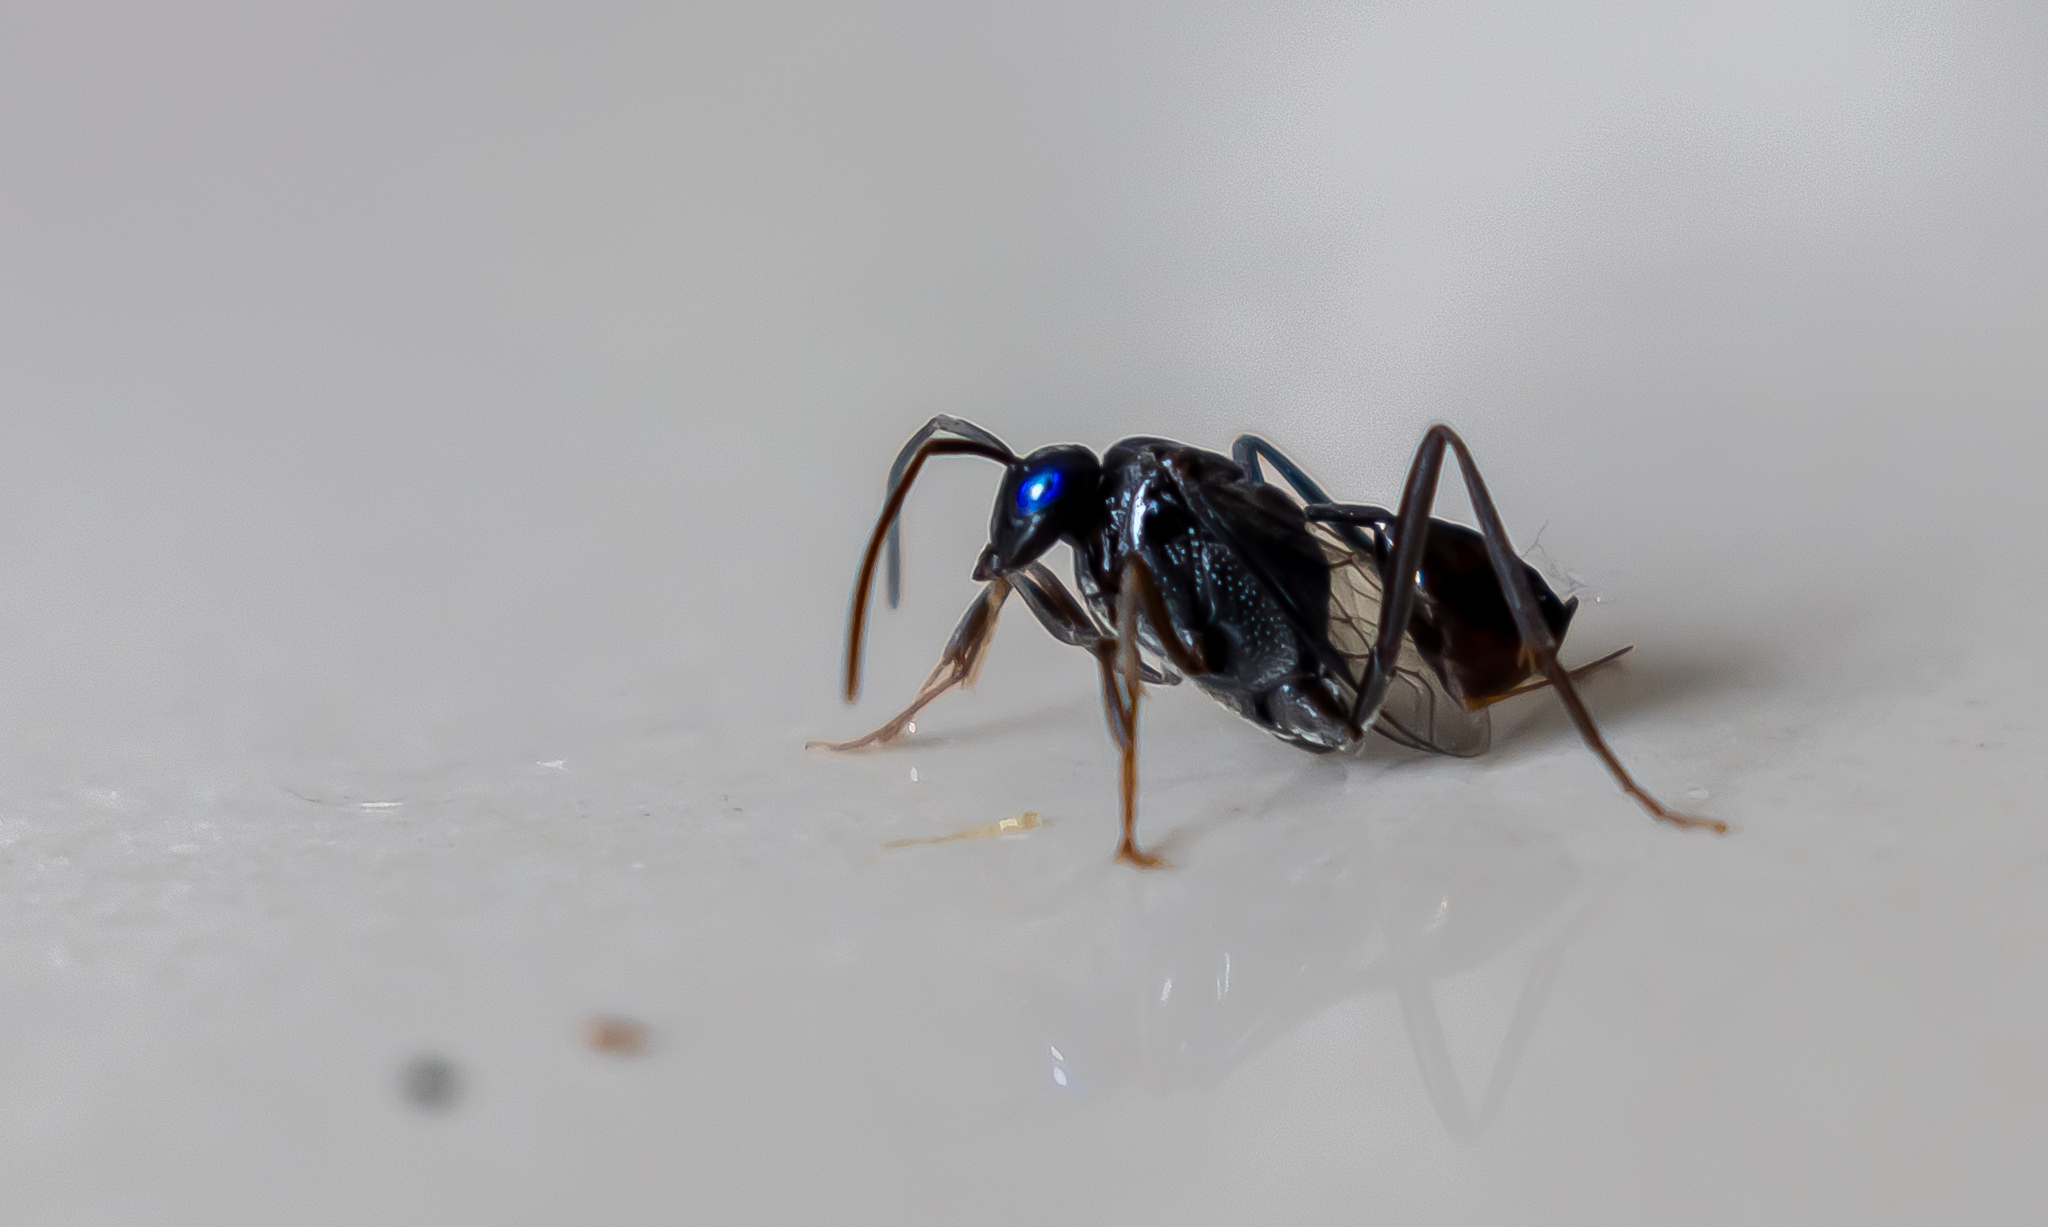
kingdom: Animalia
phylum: Arthropoda
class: Insecta
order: Hymenoptera
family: Evaniidae
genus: Evania
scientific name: Evania appendigaster
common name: Ensign wasp
